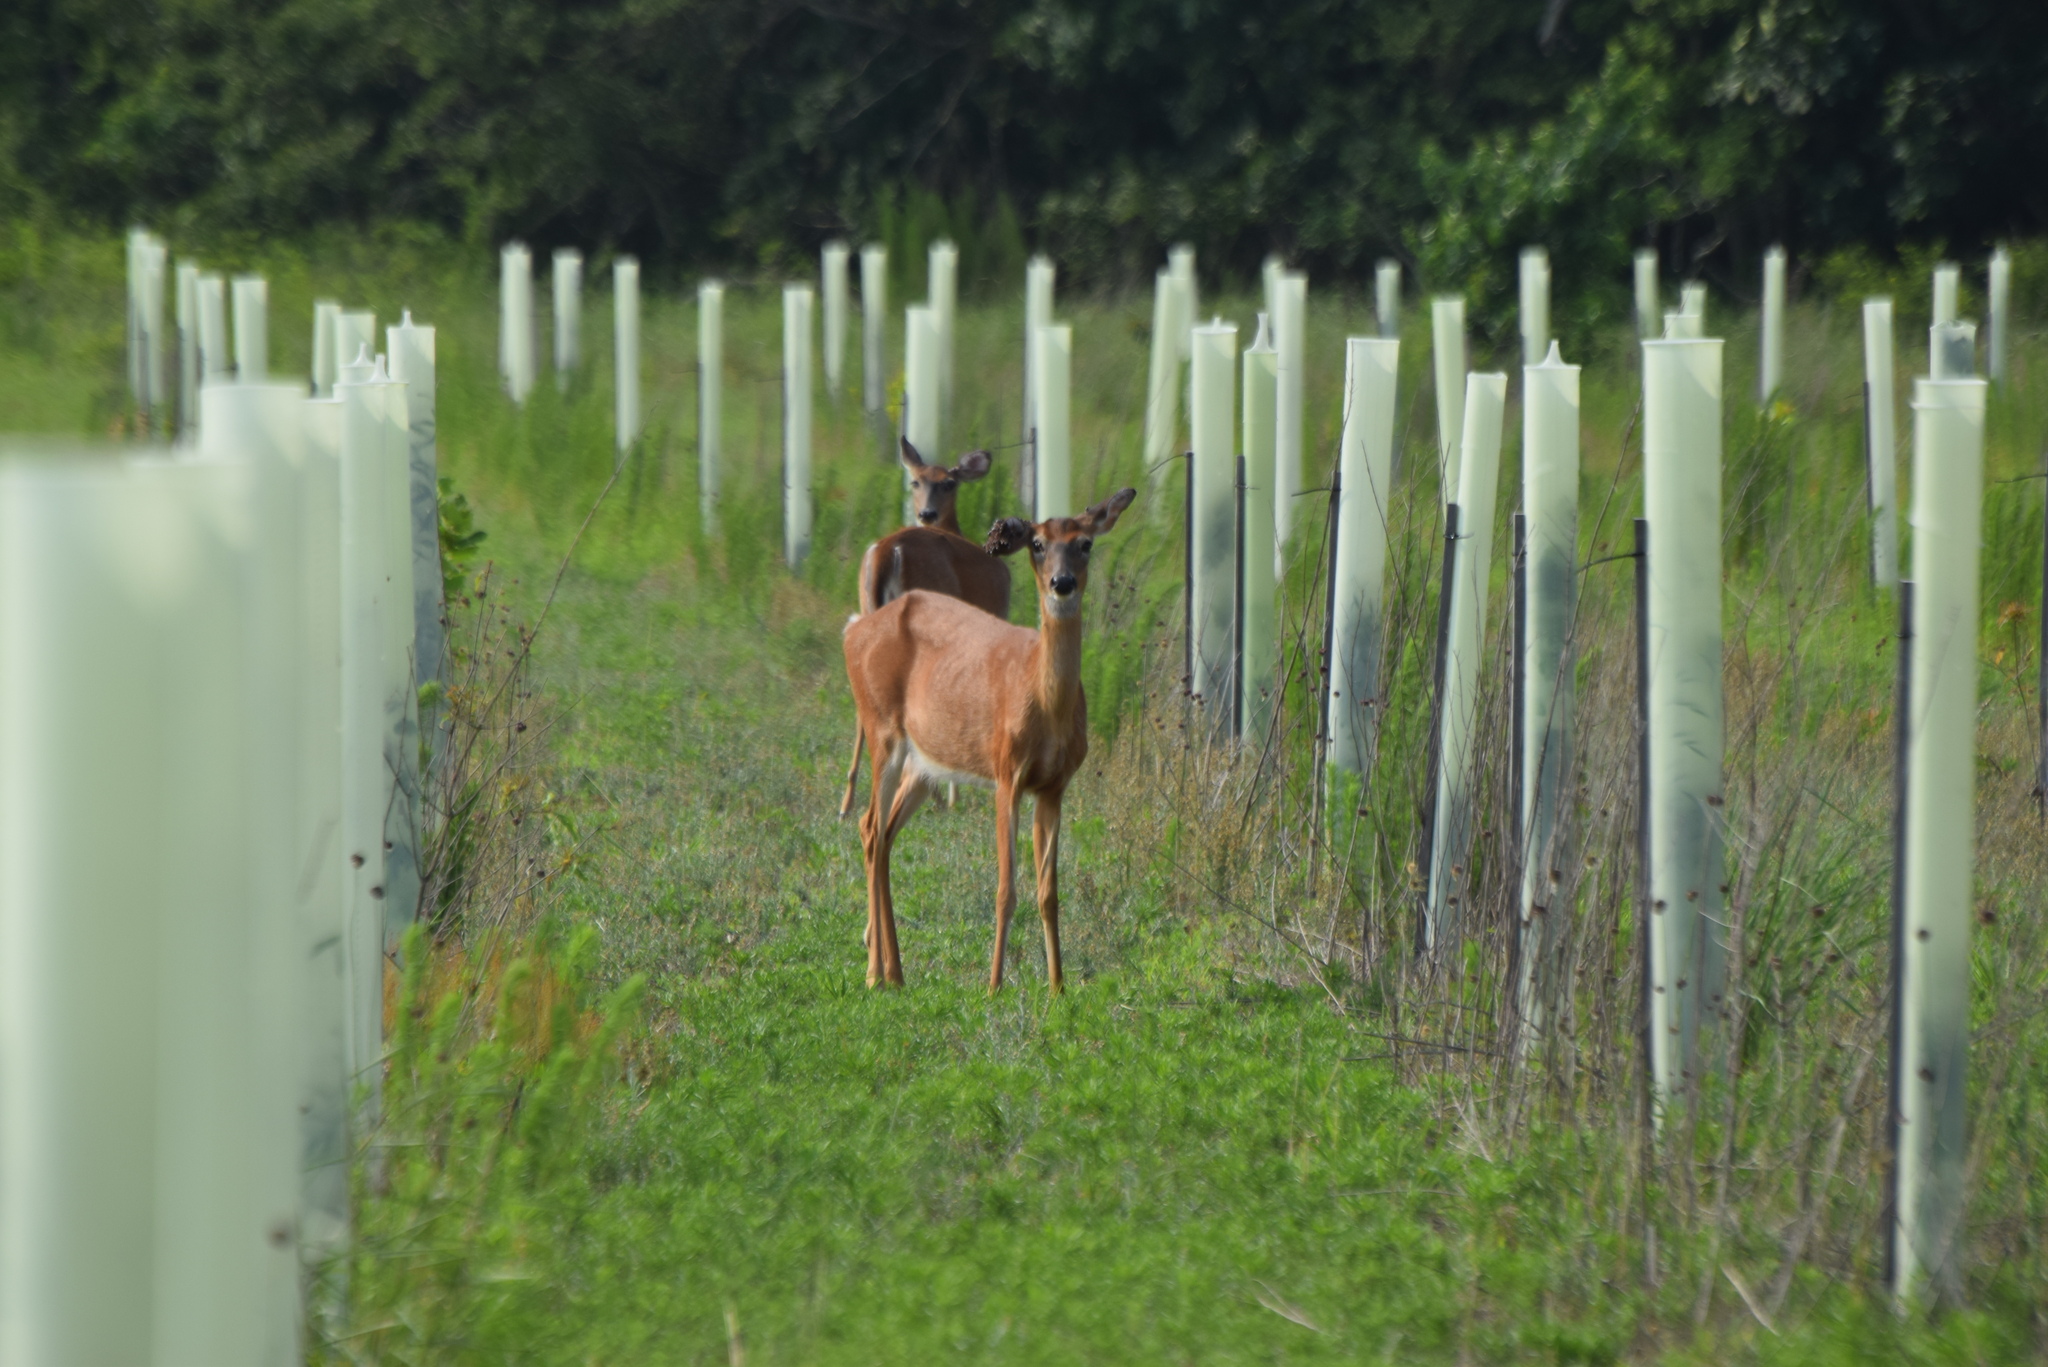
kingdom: Animalia
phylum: Chordata
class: Mammalia
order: Artiodactyla
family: Cervidae
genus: Odocoileus
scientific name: Odocoileus virginianus
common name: White-tailed deer
